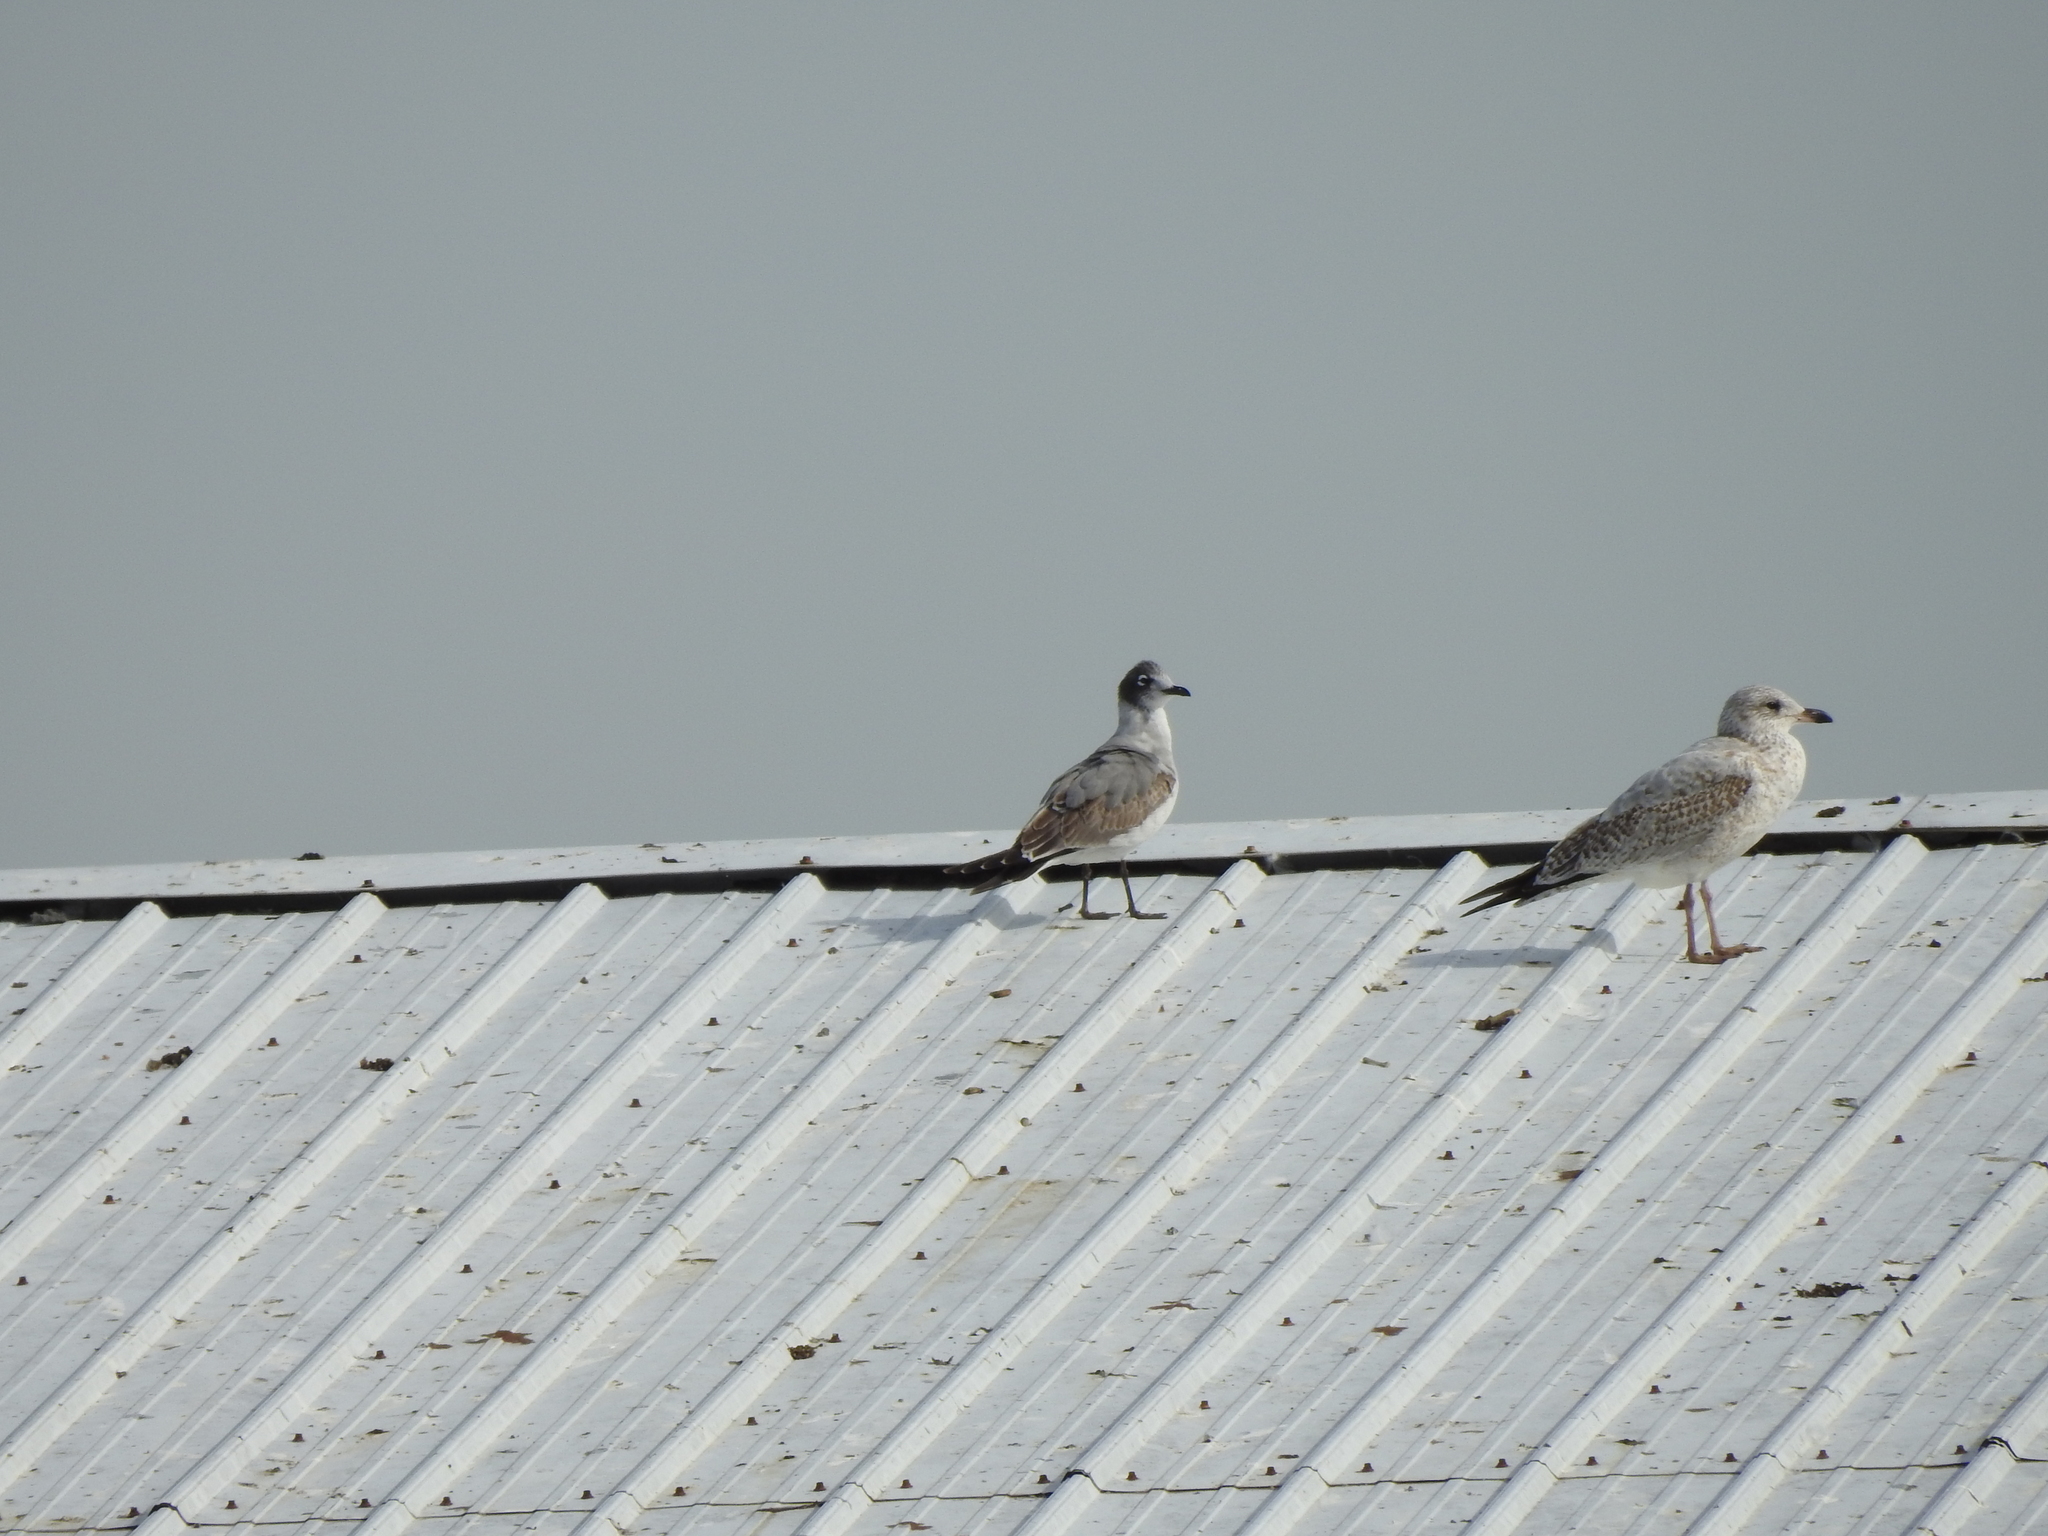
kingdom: Animalia
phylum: Chordata
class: Aves
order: Charadriiformes
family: Laridae
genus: Leucophaeus
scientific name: Leucophaeus pipixcan
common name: Franklin's gull
